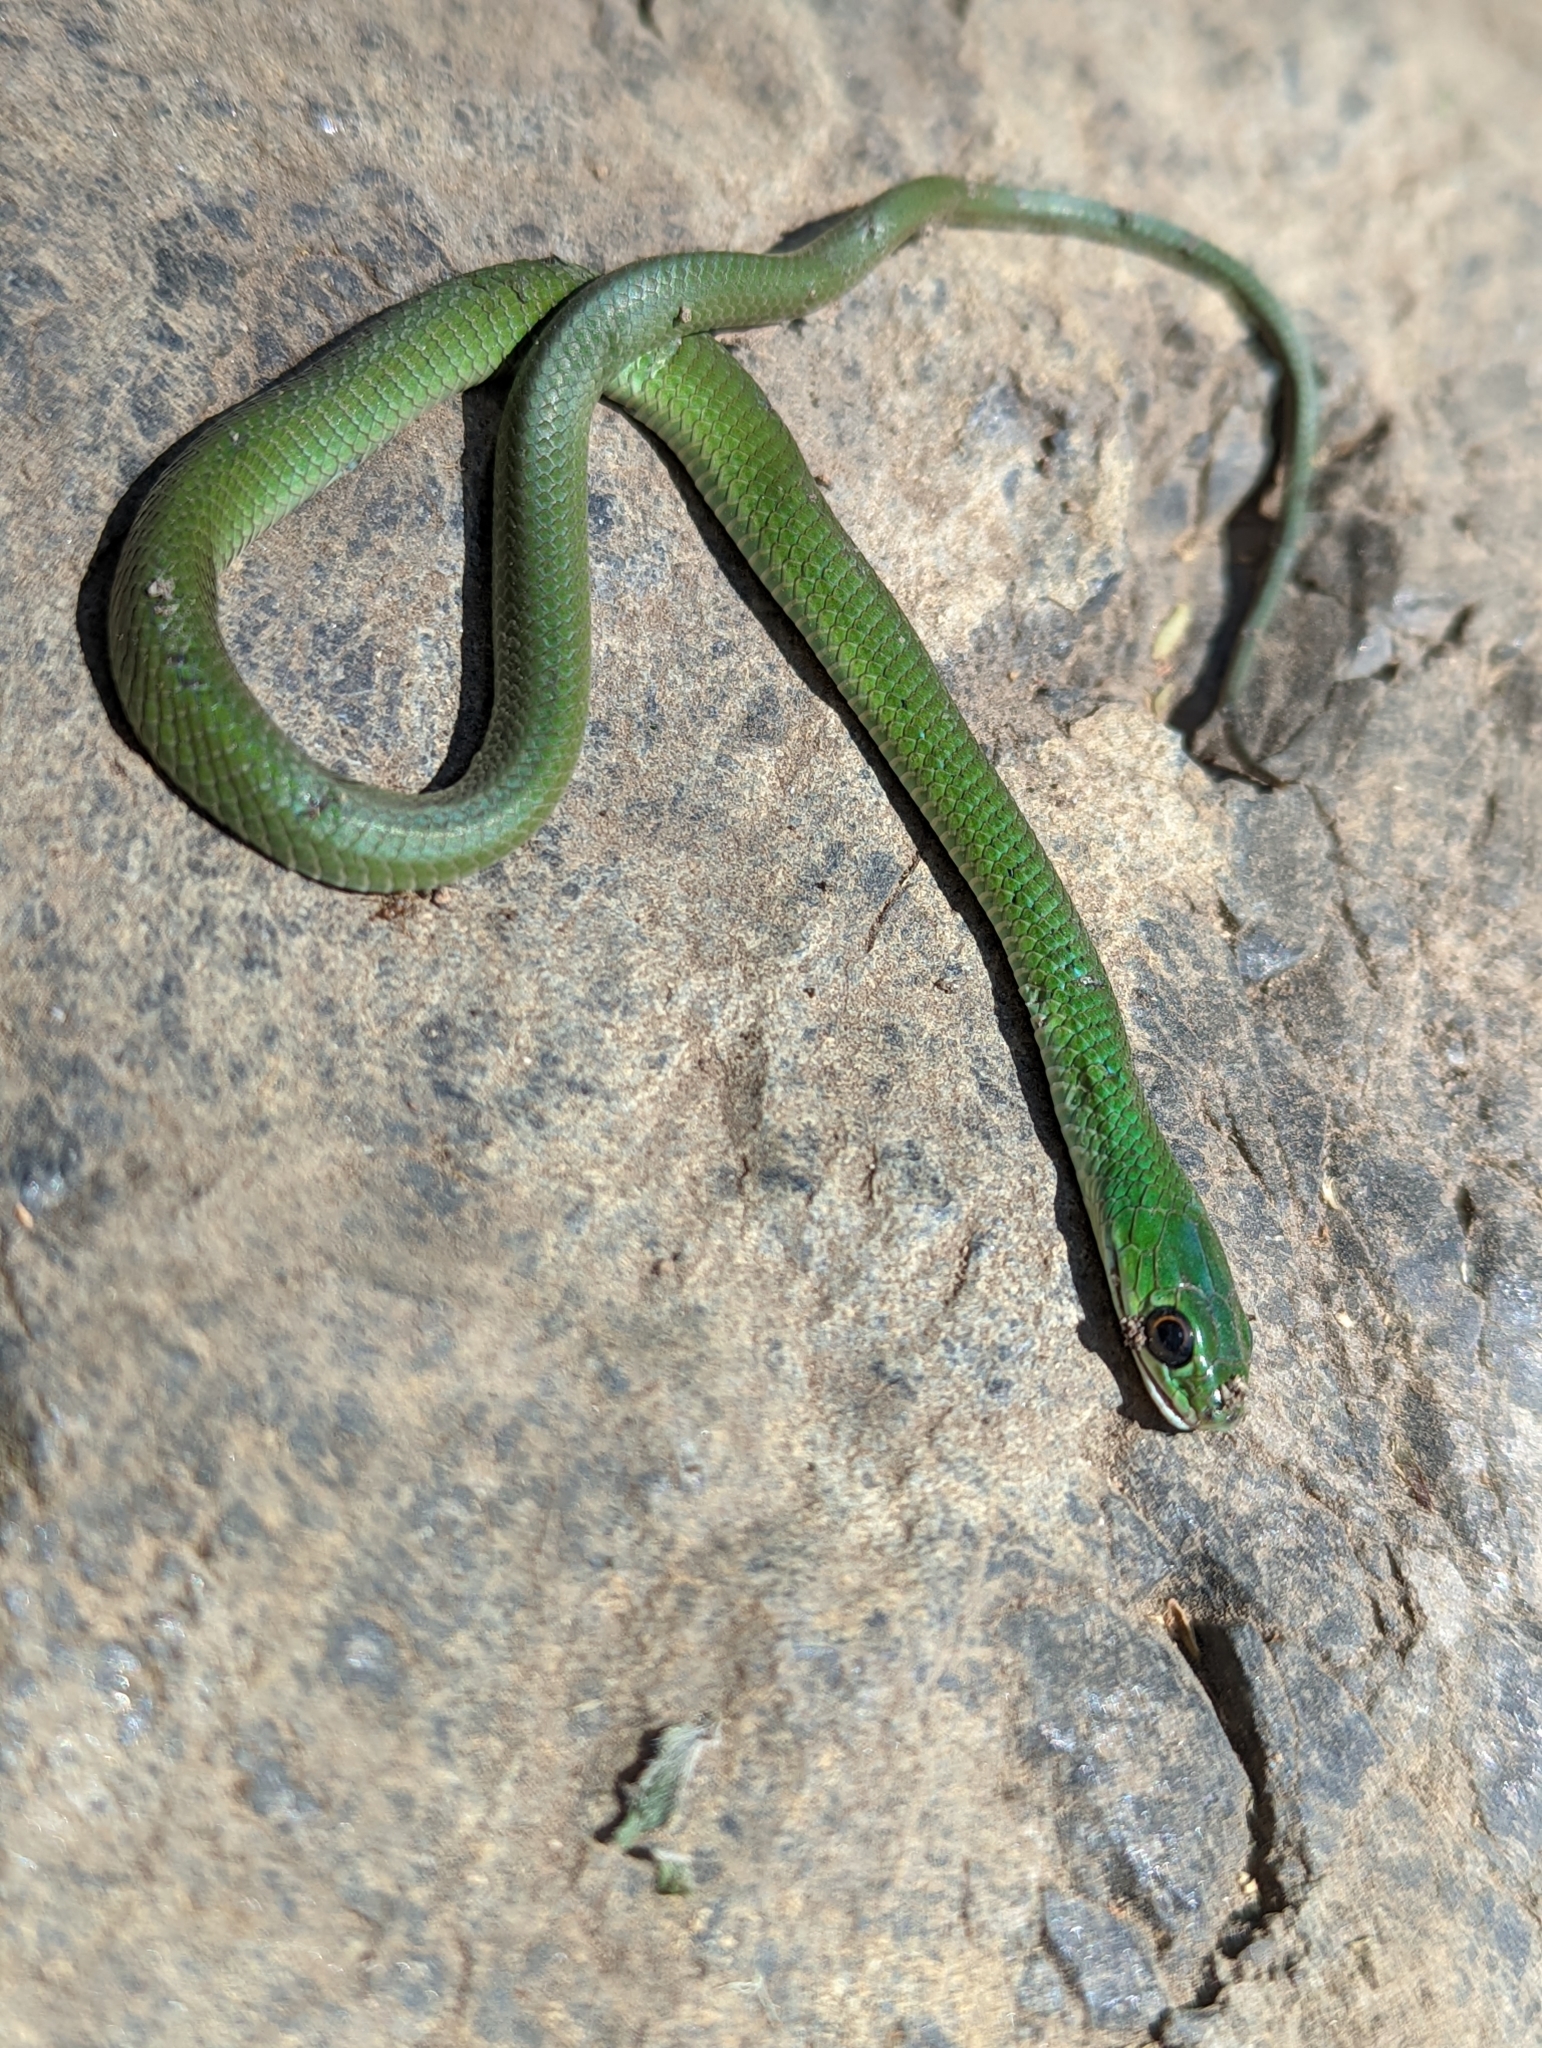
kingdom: Animalia
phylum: Chordata
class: Squamata
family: Colubridae
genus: Philothamnus
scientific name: Philothamnus battersbyi
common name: Battersby's green snake
